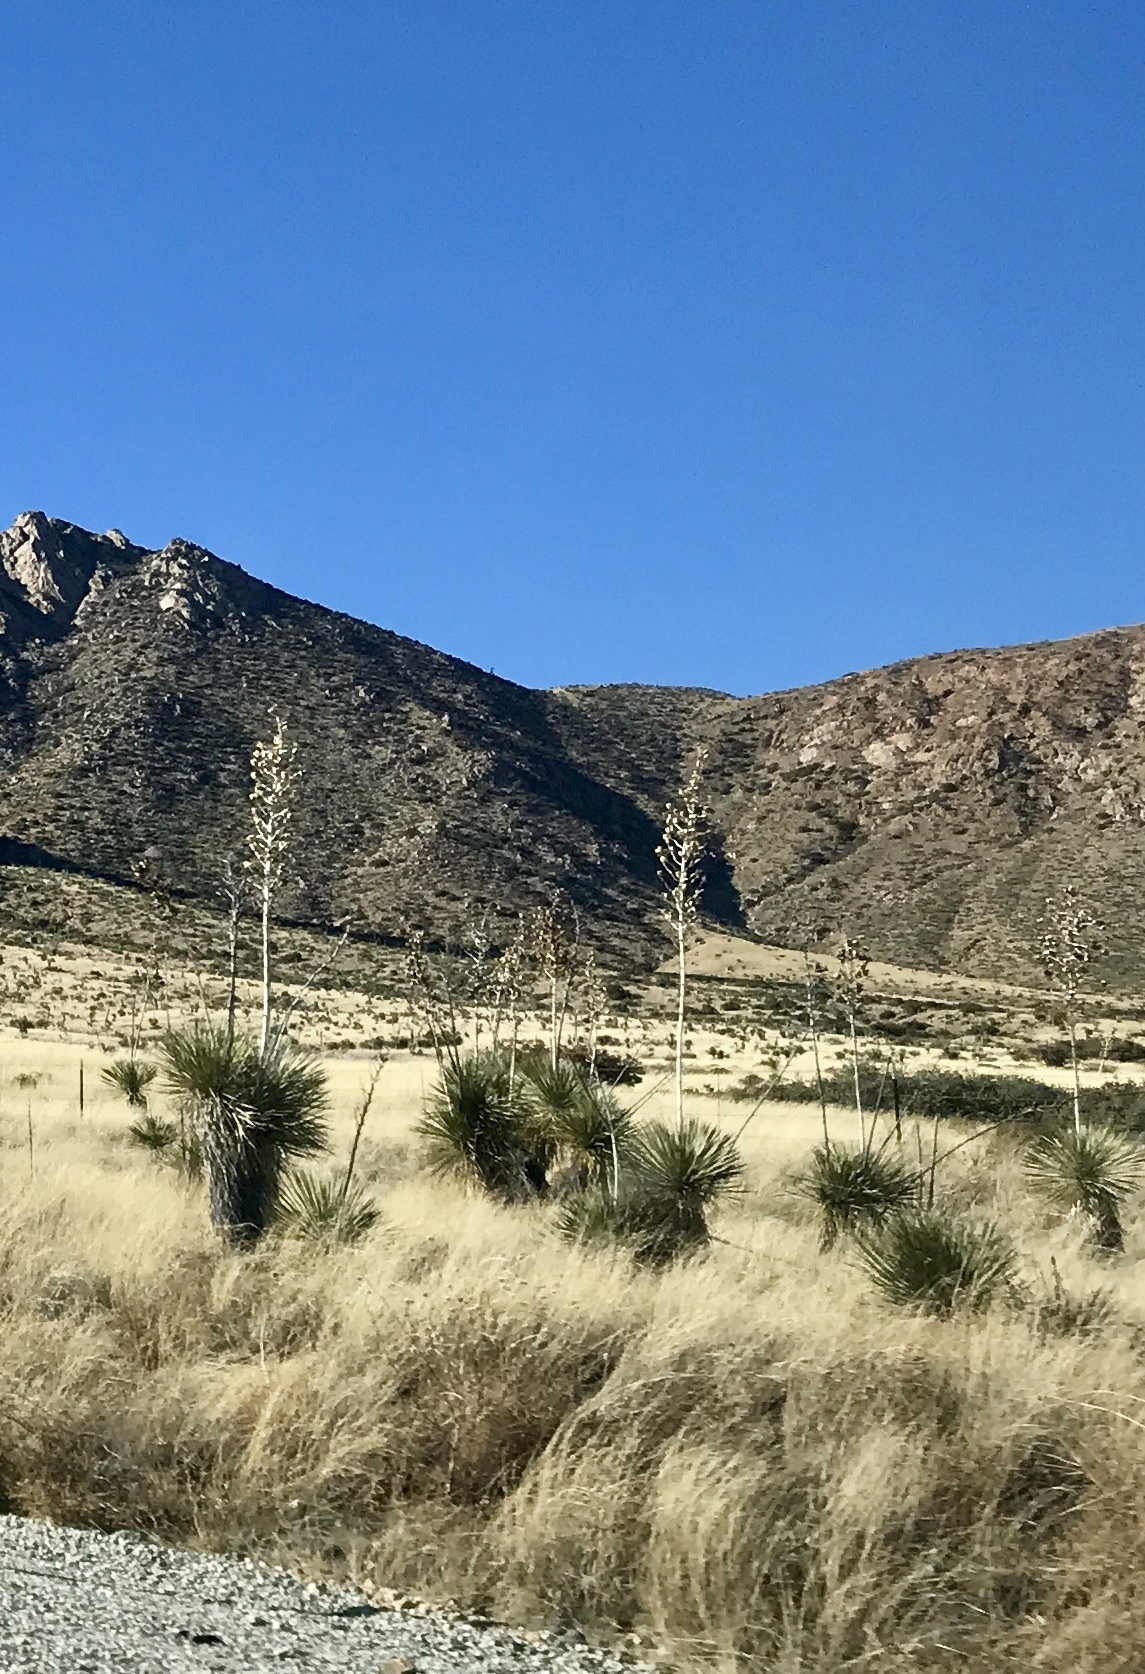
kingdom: Plantae
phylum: Tracheophyta
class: Liliopsida
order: Asparagales
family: Asparagaceae
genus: Yucca
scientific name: Yucca elata
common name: Palmella
